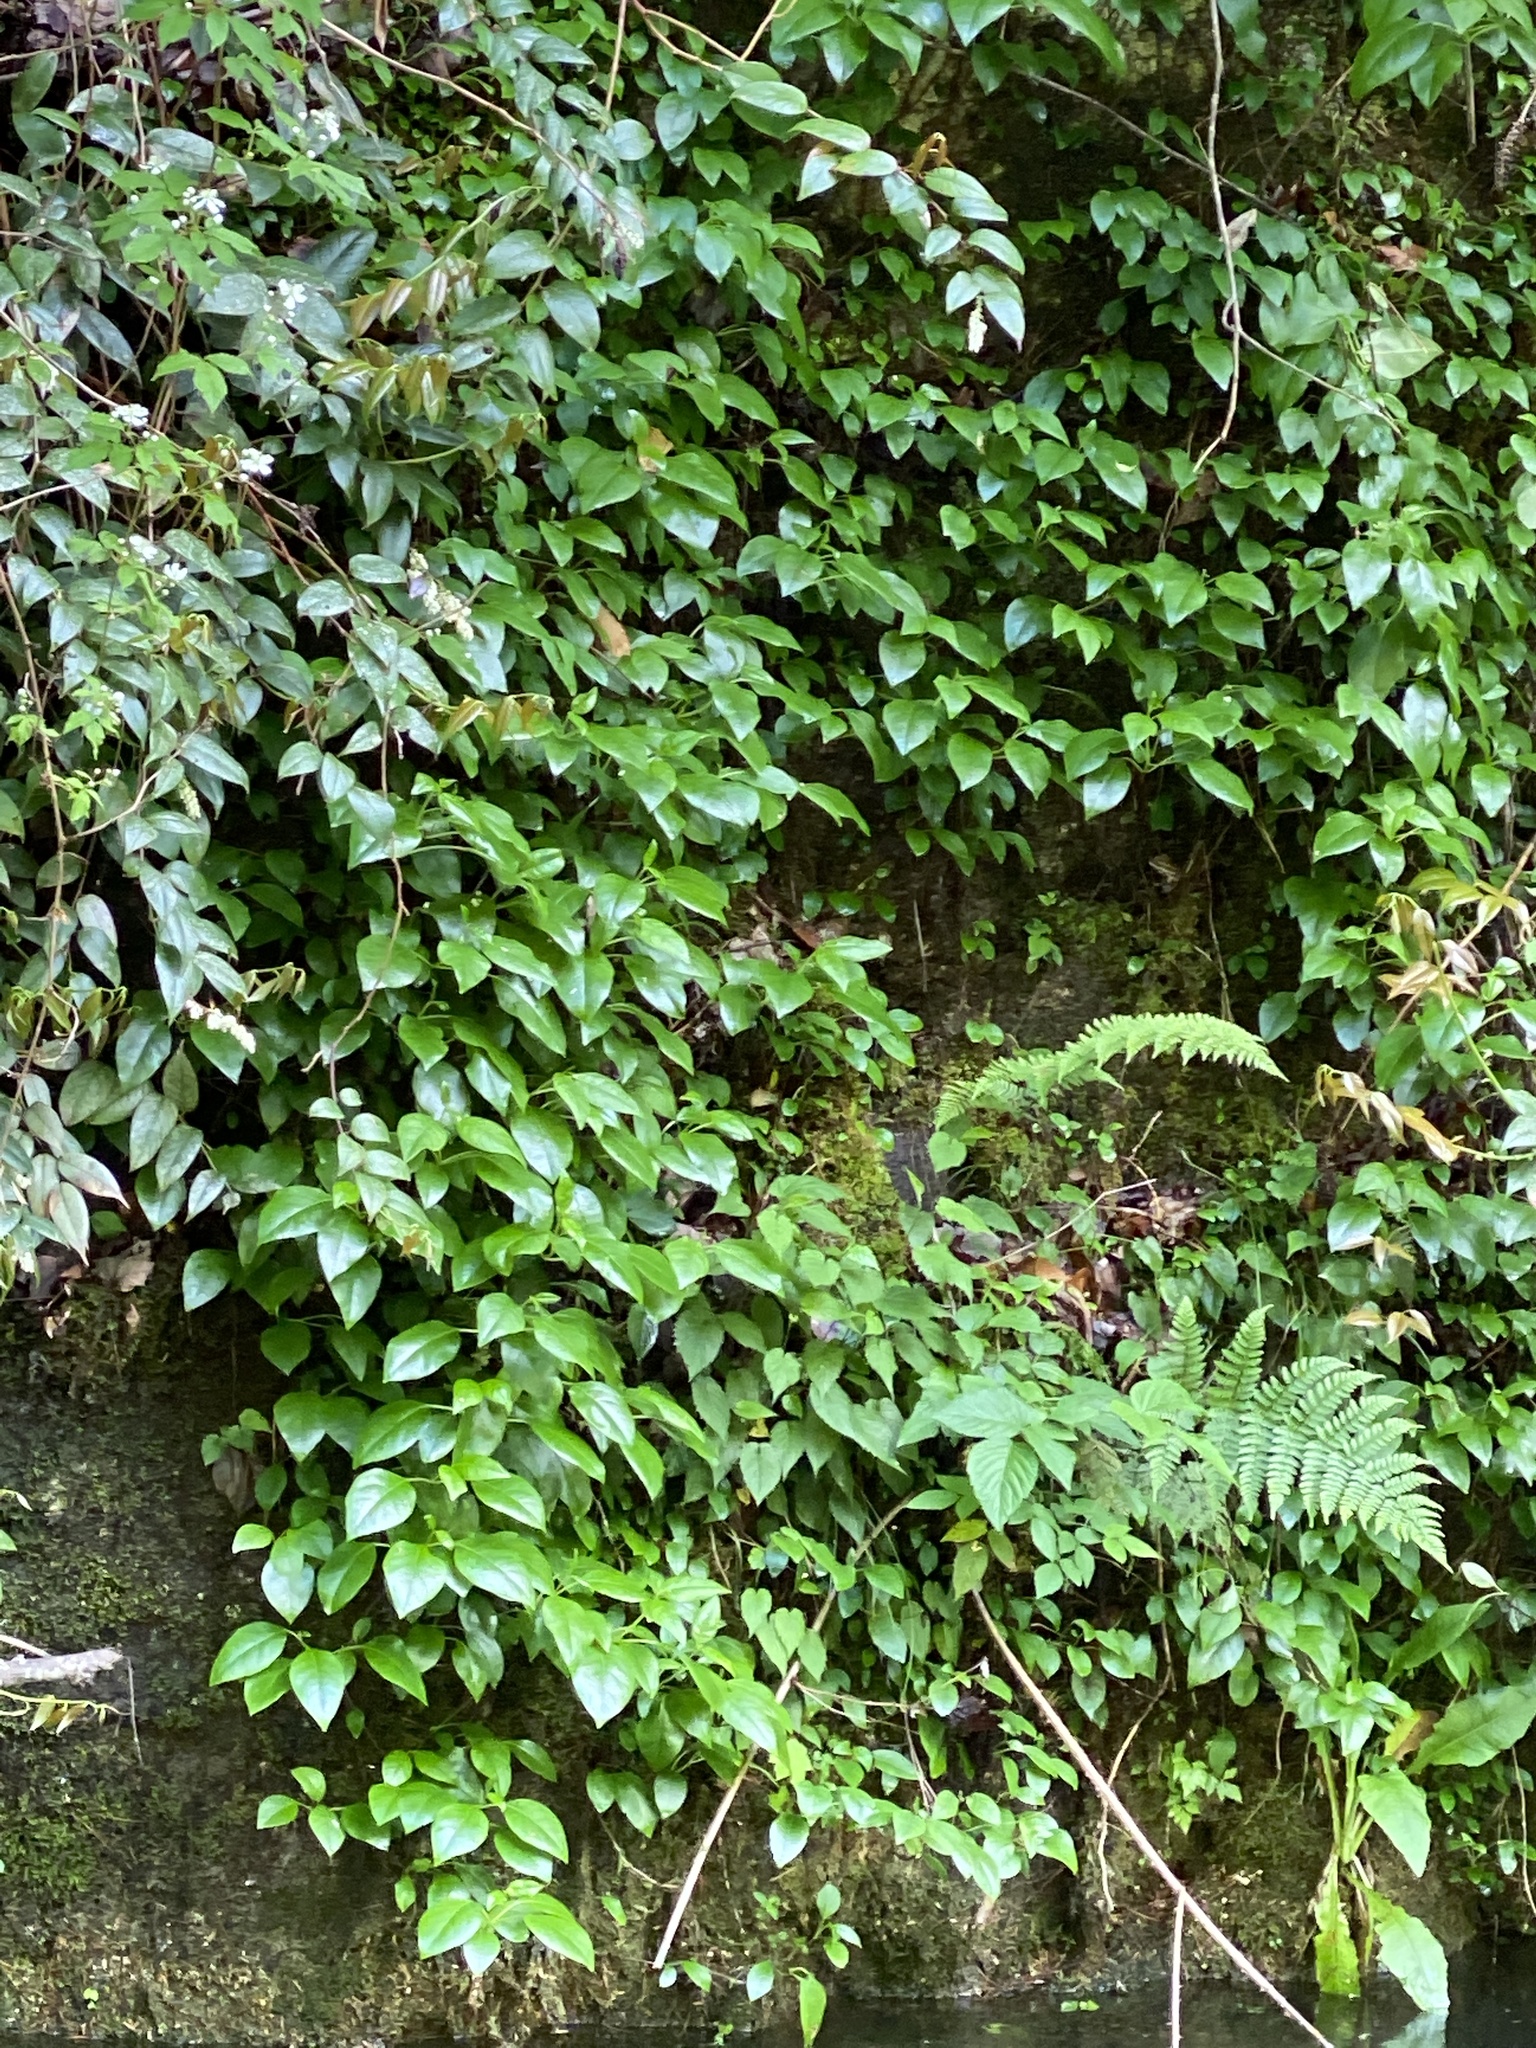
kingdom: Plantae
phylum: Tracheophyta
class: Magnoliopsida
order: Cornales
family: Hydrangeaceae
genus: Hydrangea
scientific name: Hydrangea barbara
